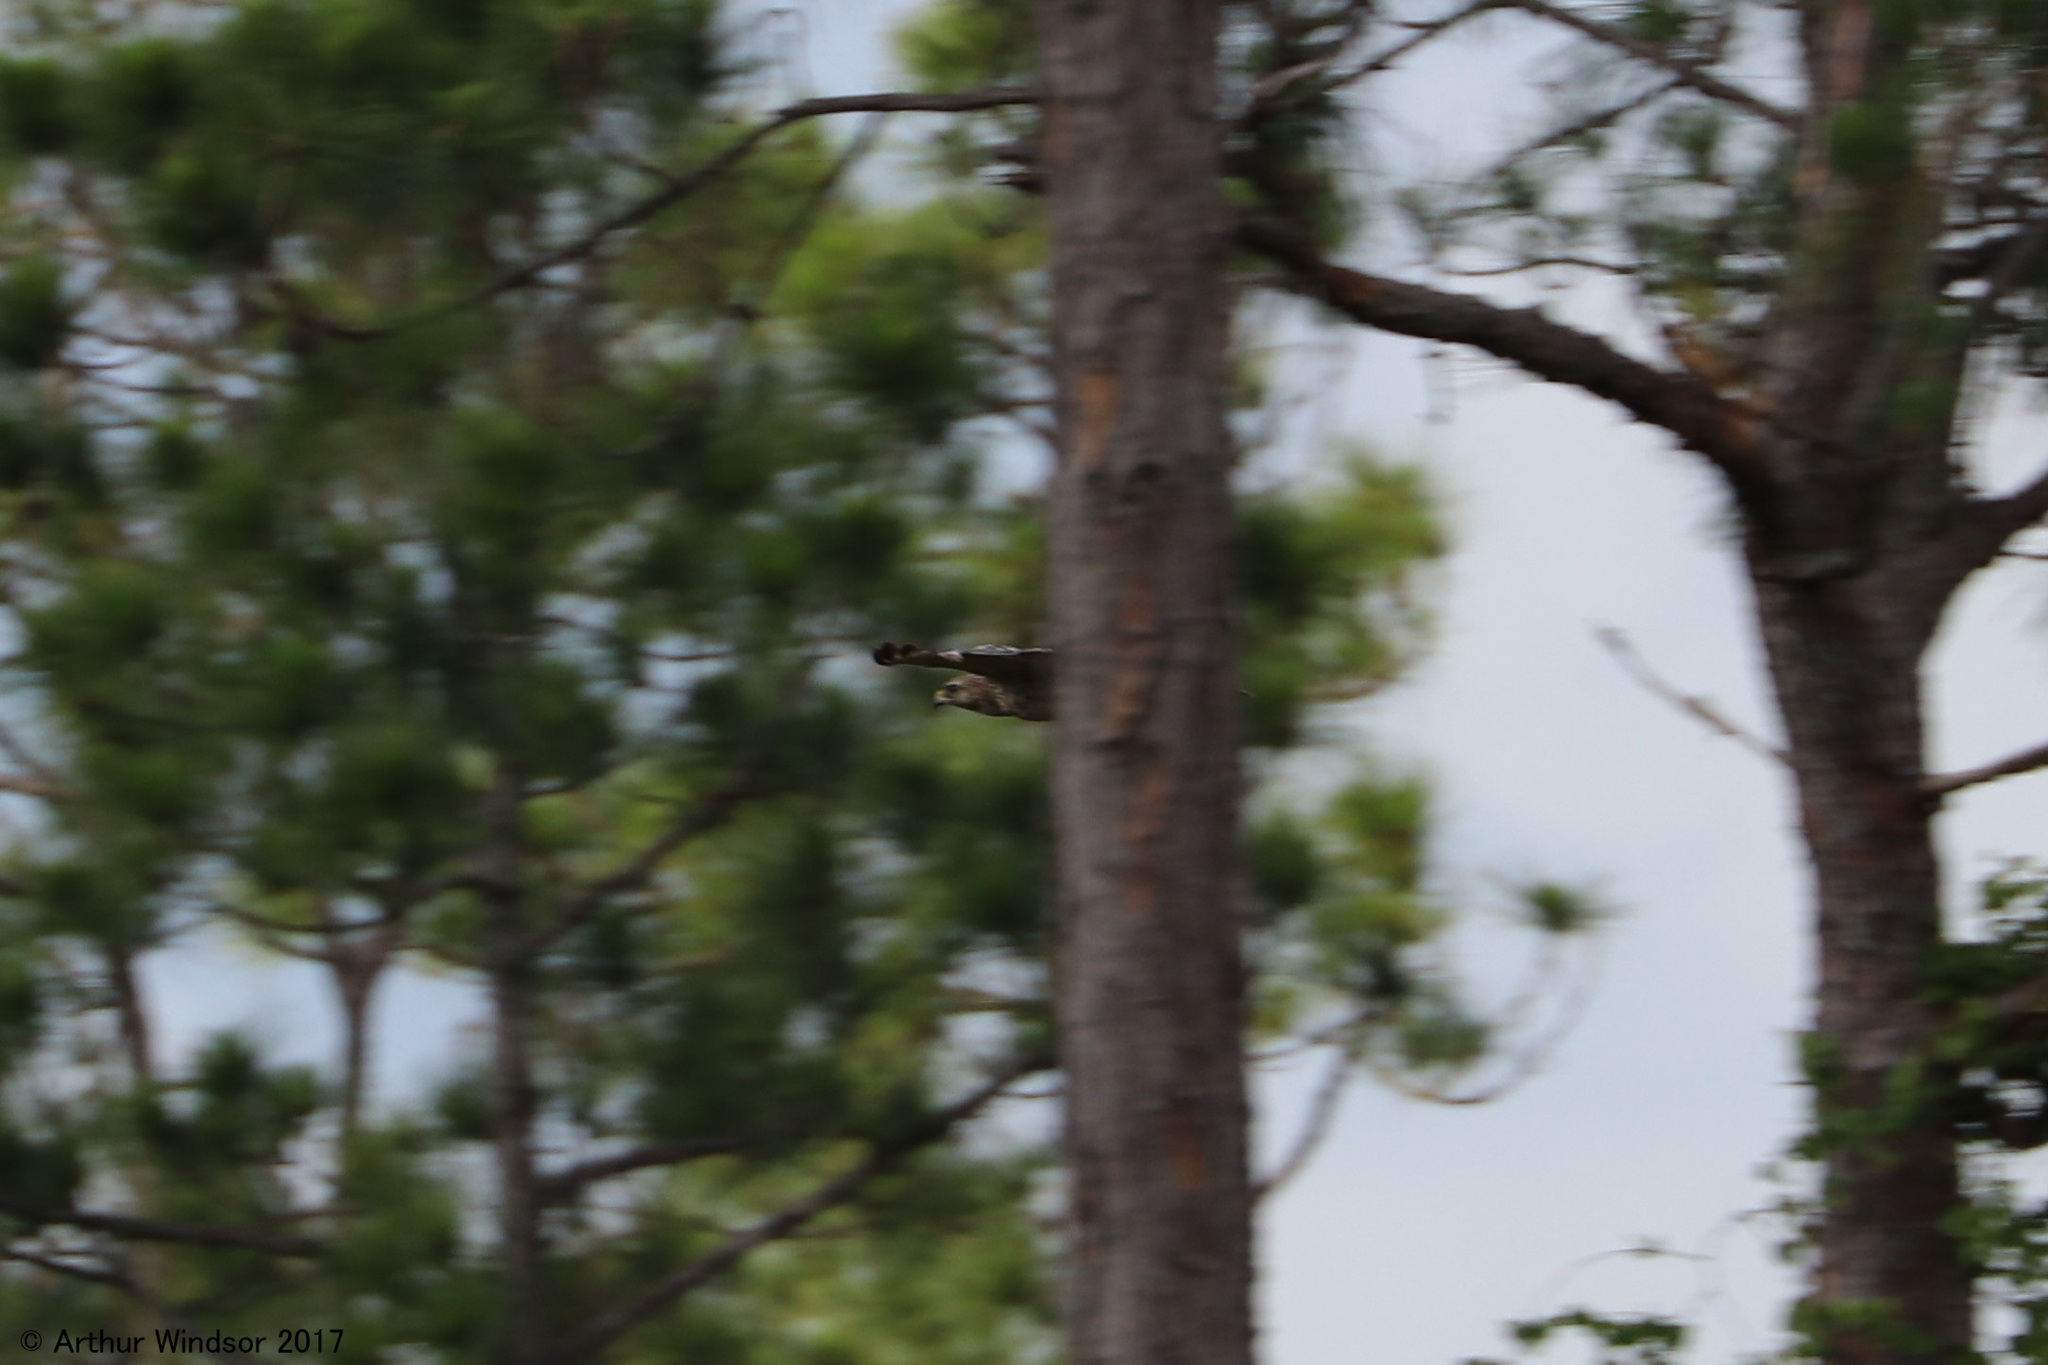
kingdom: Animalia
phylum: Chordata
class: Aves
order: Accipitriformes
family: Accipitridae
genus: Buteo
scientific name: Buteo lineatus
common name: Red-shouldered hawk
